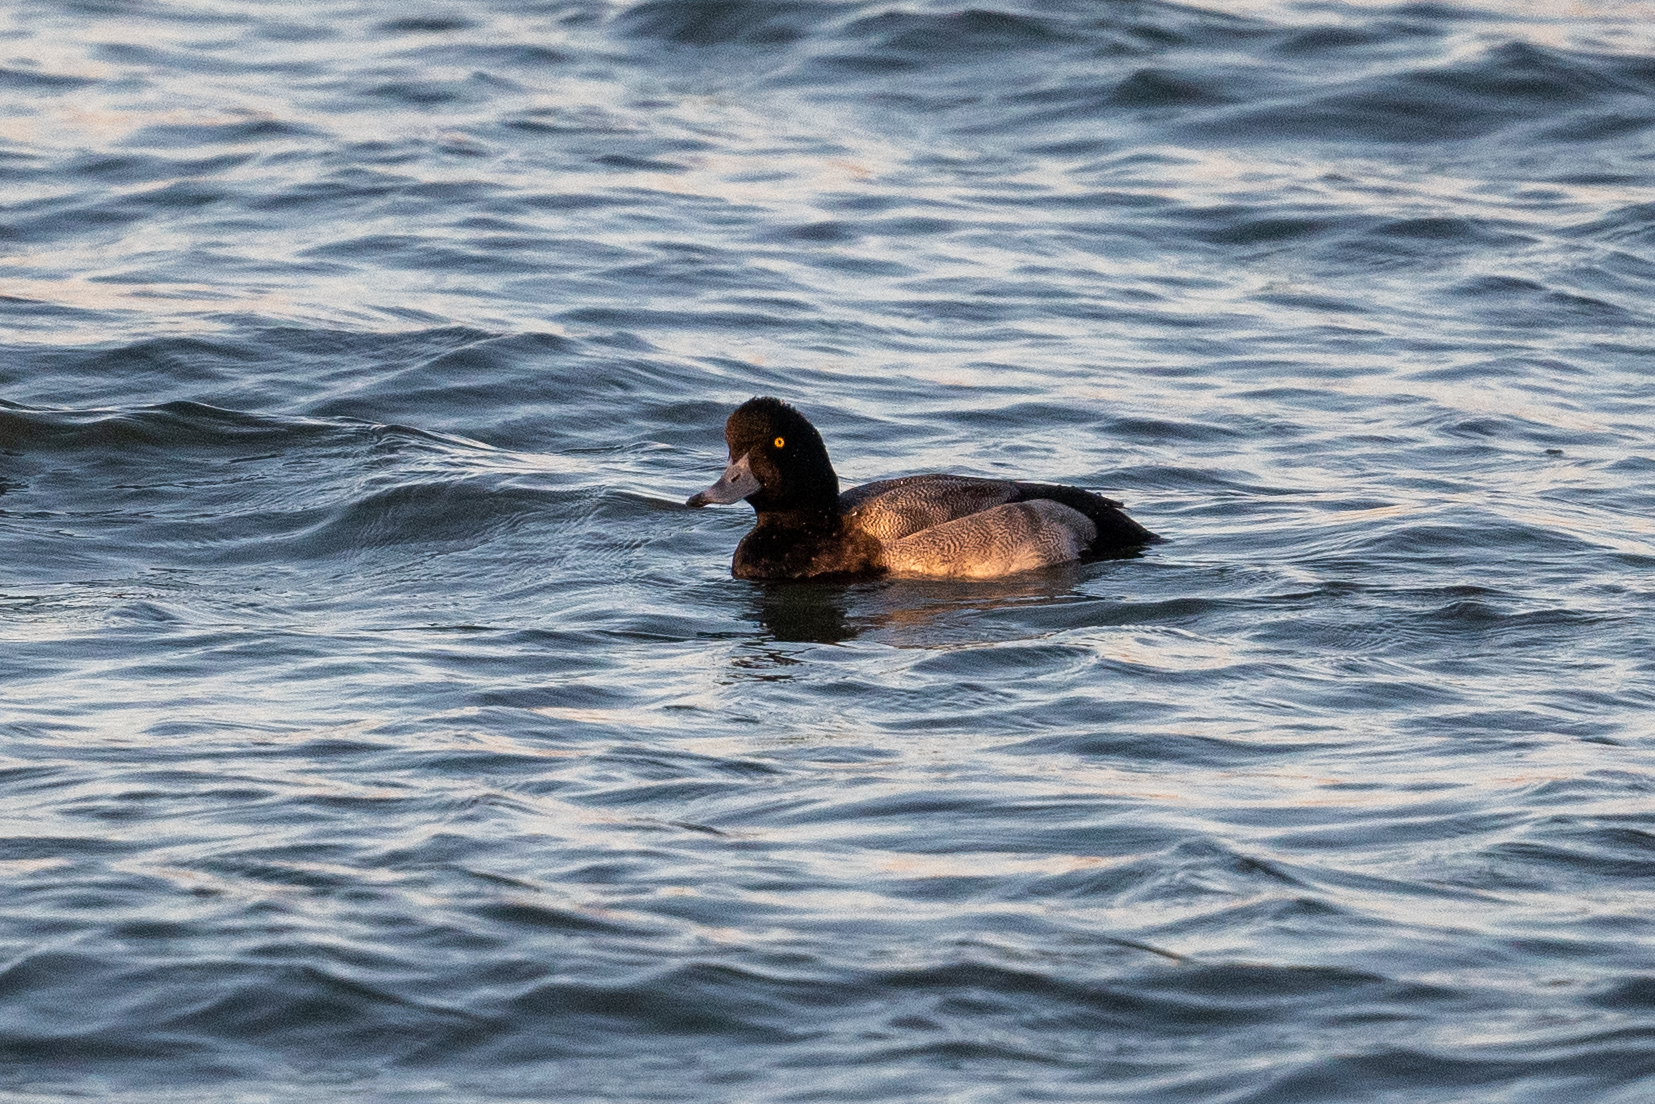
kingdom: Animalia
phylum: Chordata
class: Aves
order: Anseriformes
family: Anatidae
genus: Aythya
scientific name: Aythya marila
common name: Greater scaup
